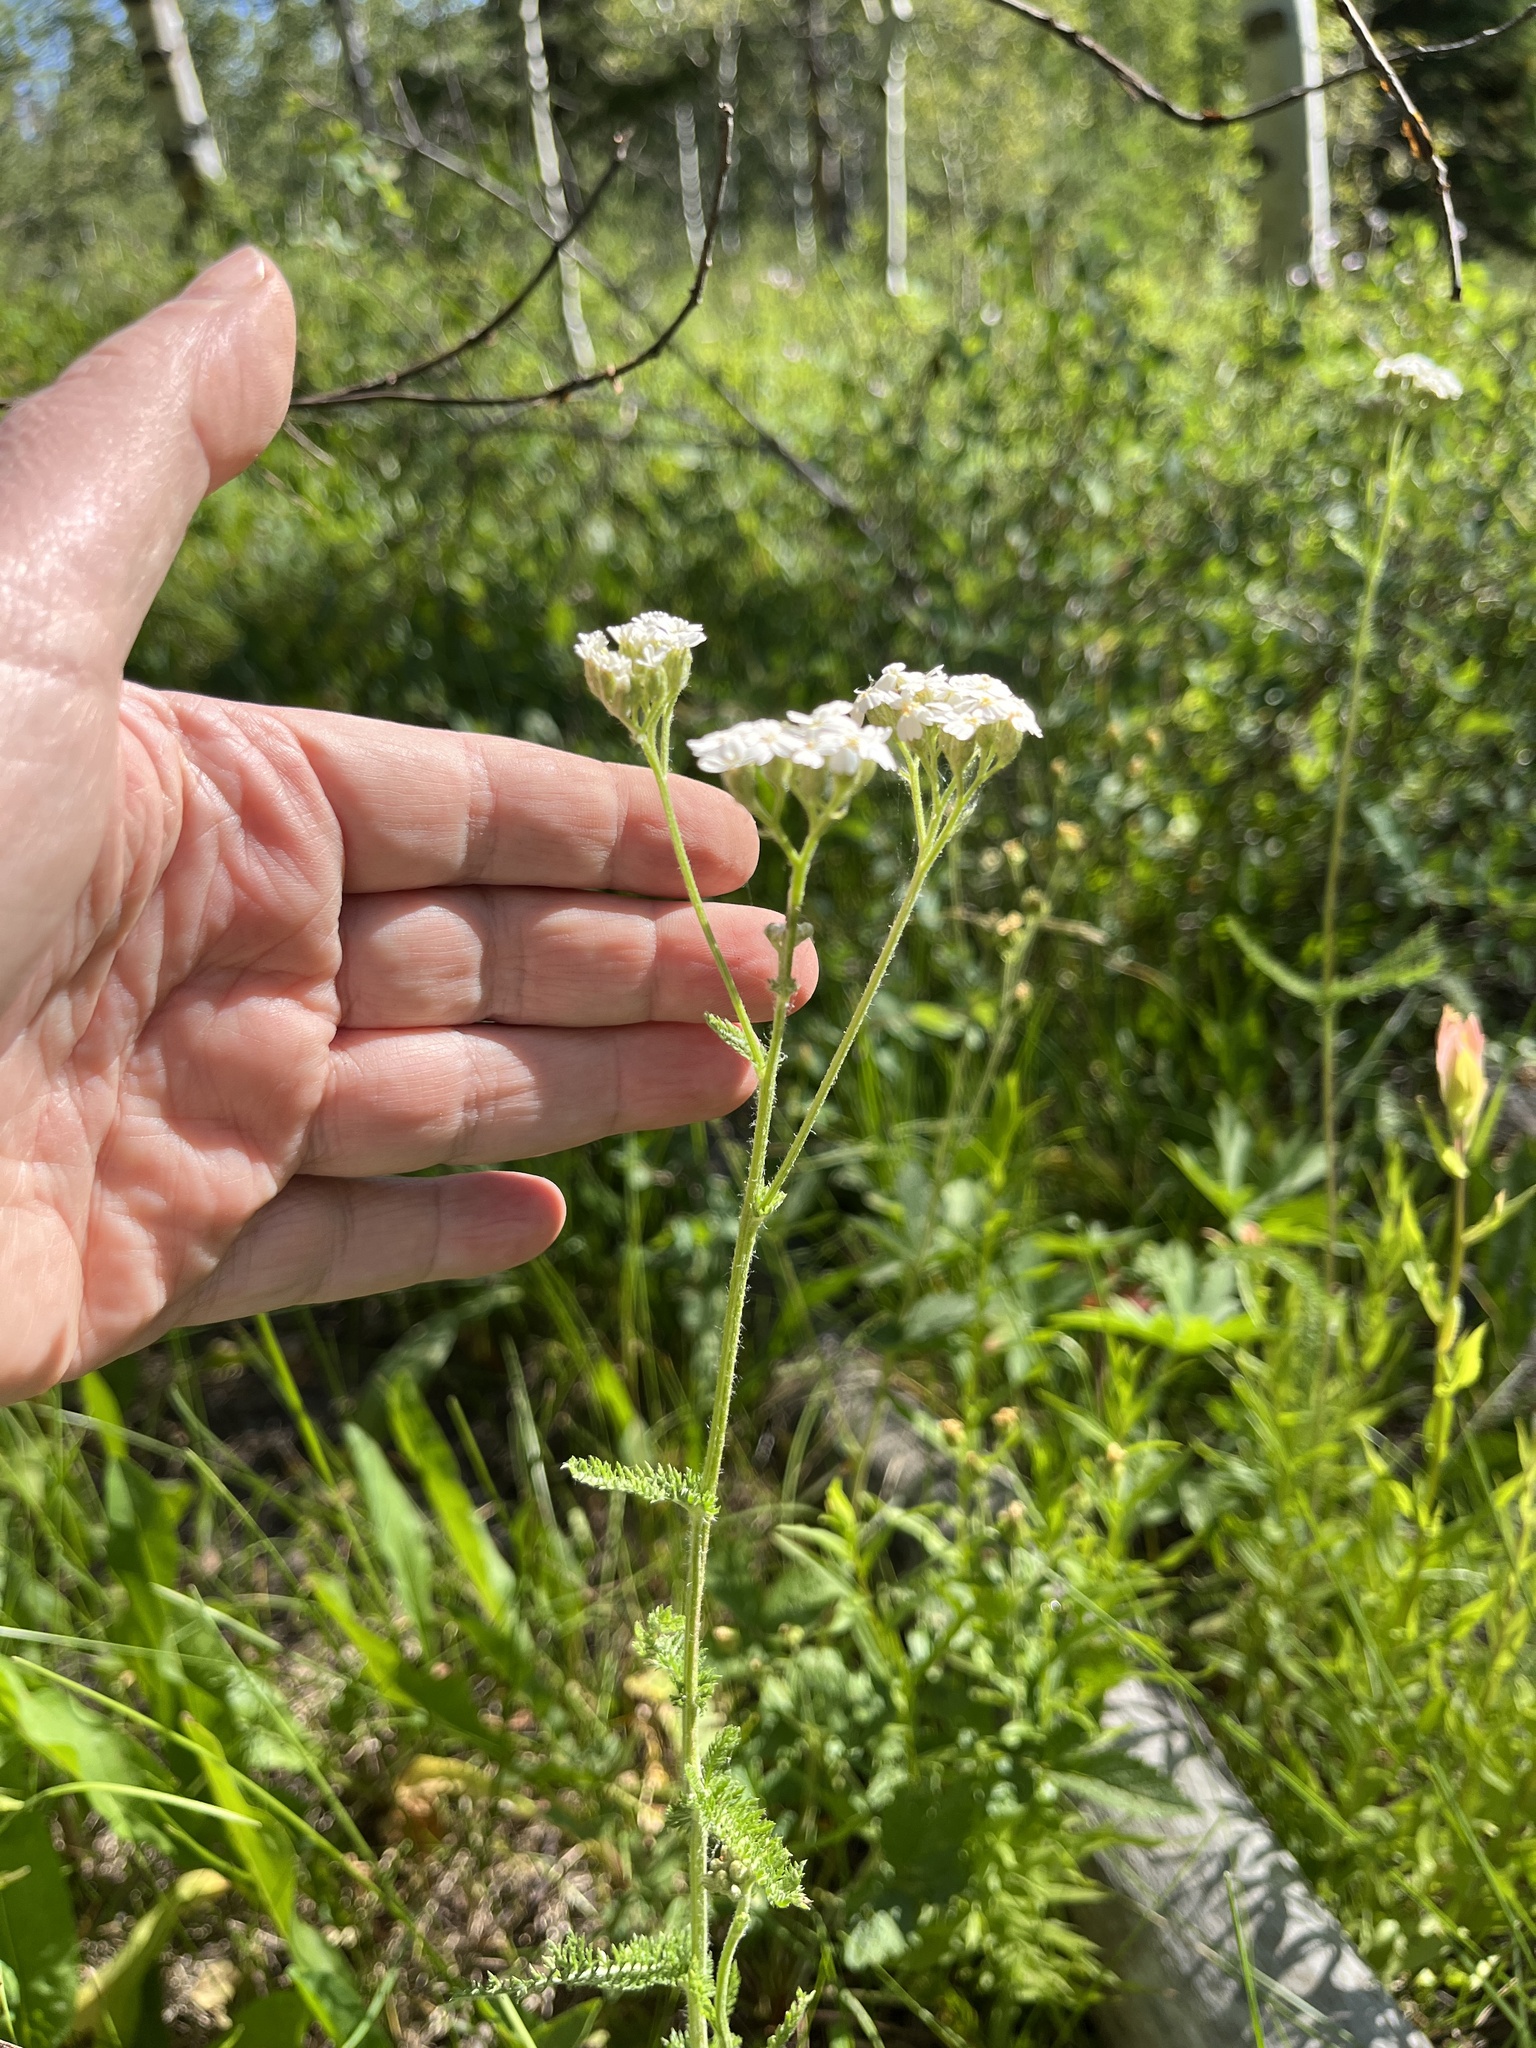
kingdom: Plantae
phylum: Tracheophyta
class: Magnoliopsida
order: Asterales
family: Asteraceae
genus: Achillea
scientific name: Achillea millefolium
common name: Yarrow
